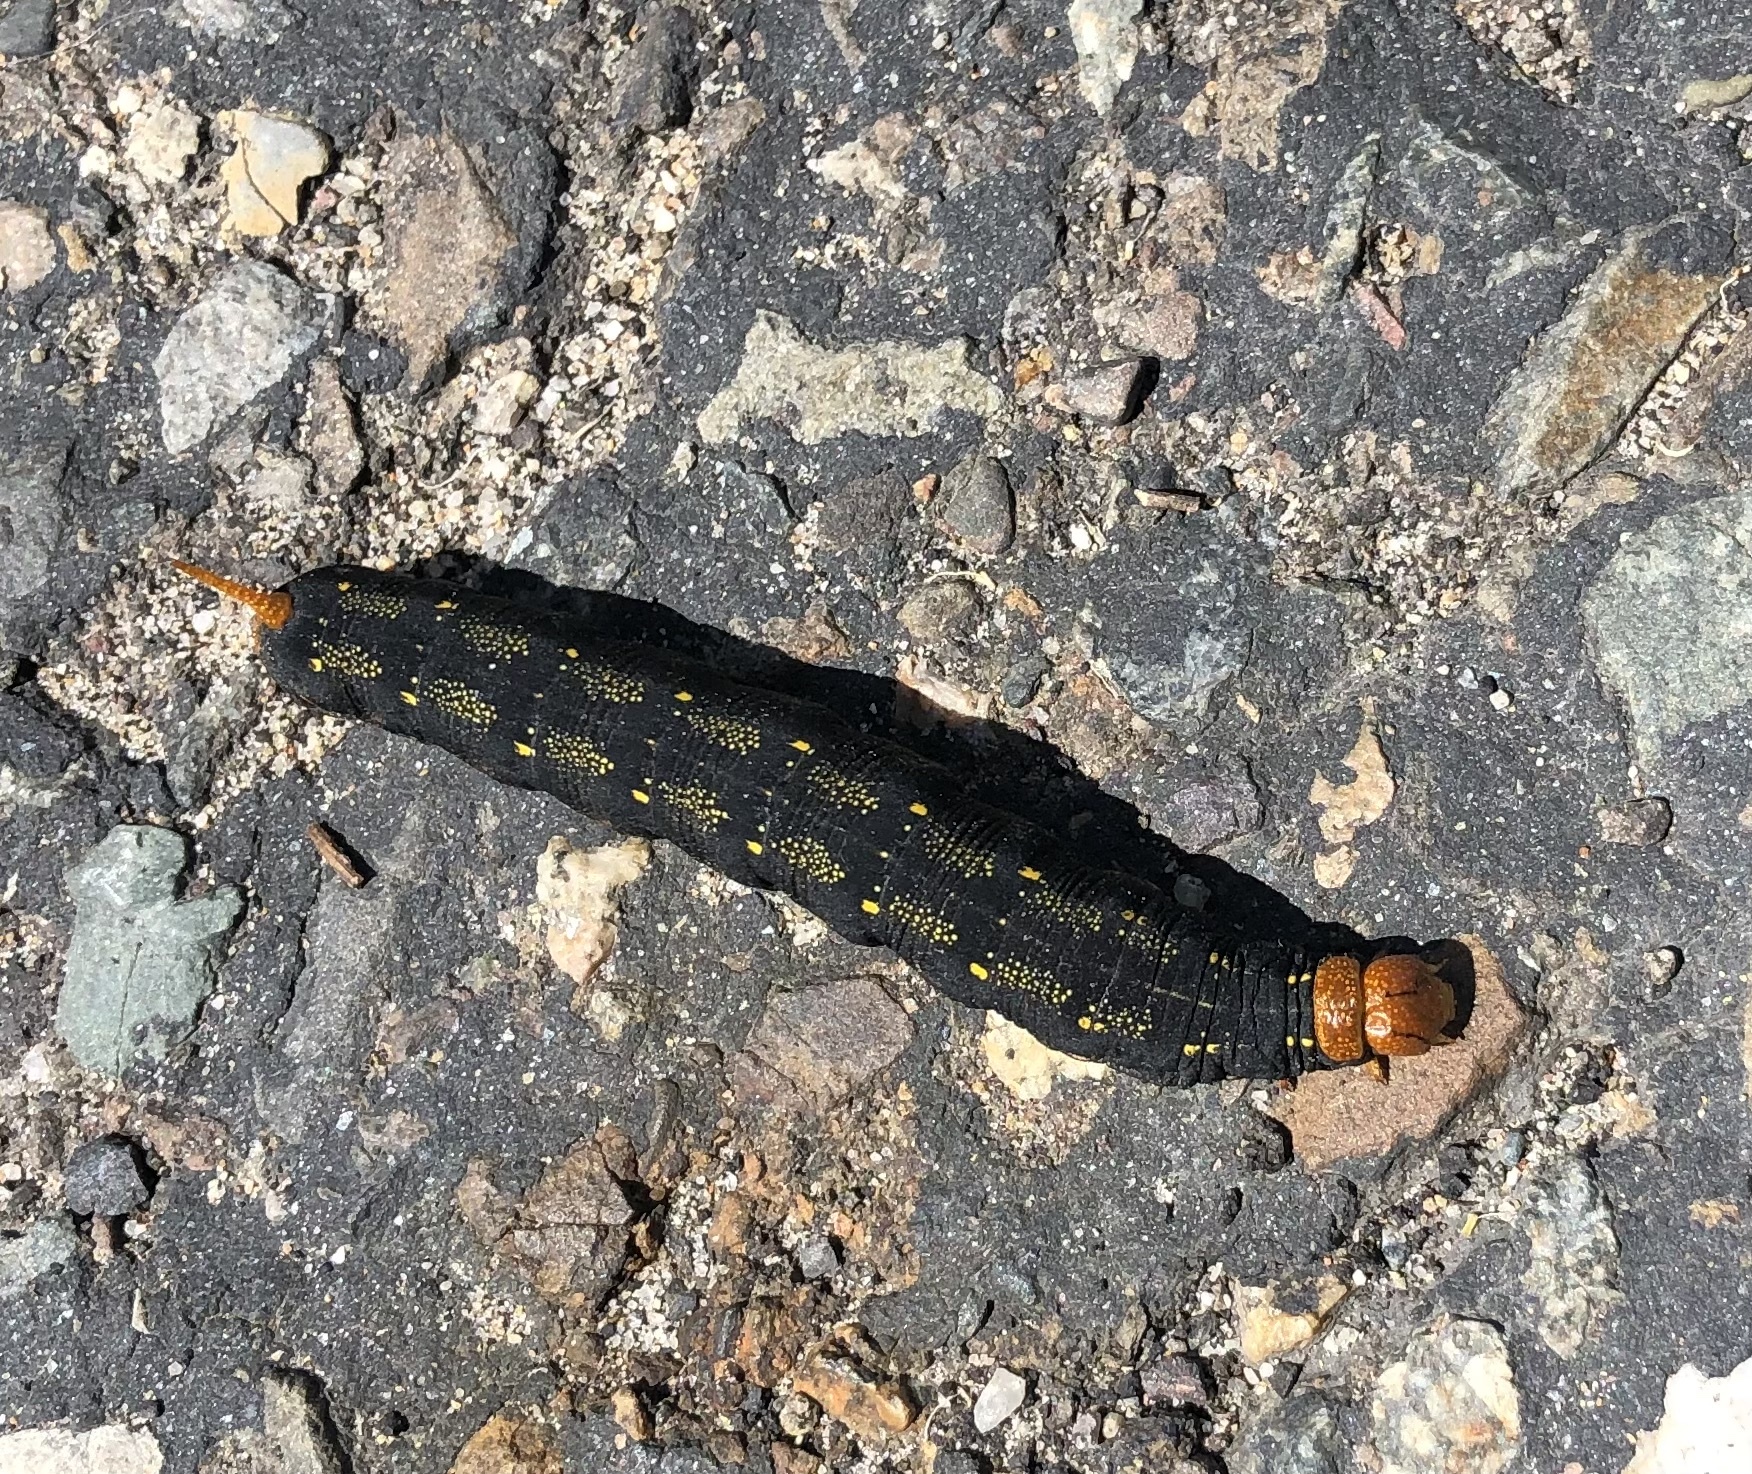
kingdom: Animalia
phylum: Arthropoda
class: Insecta
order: Lepidoptera
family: Sphingidae
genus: Hyles
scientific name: Hyles lineata
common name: White-lined sphinx
